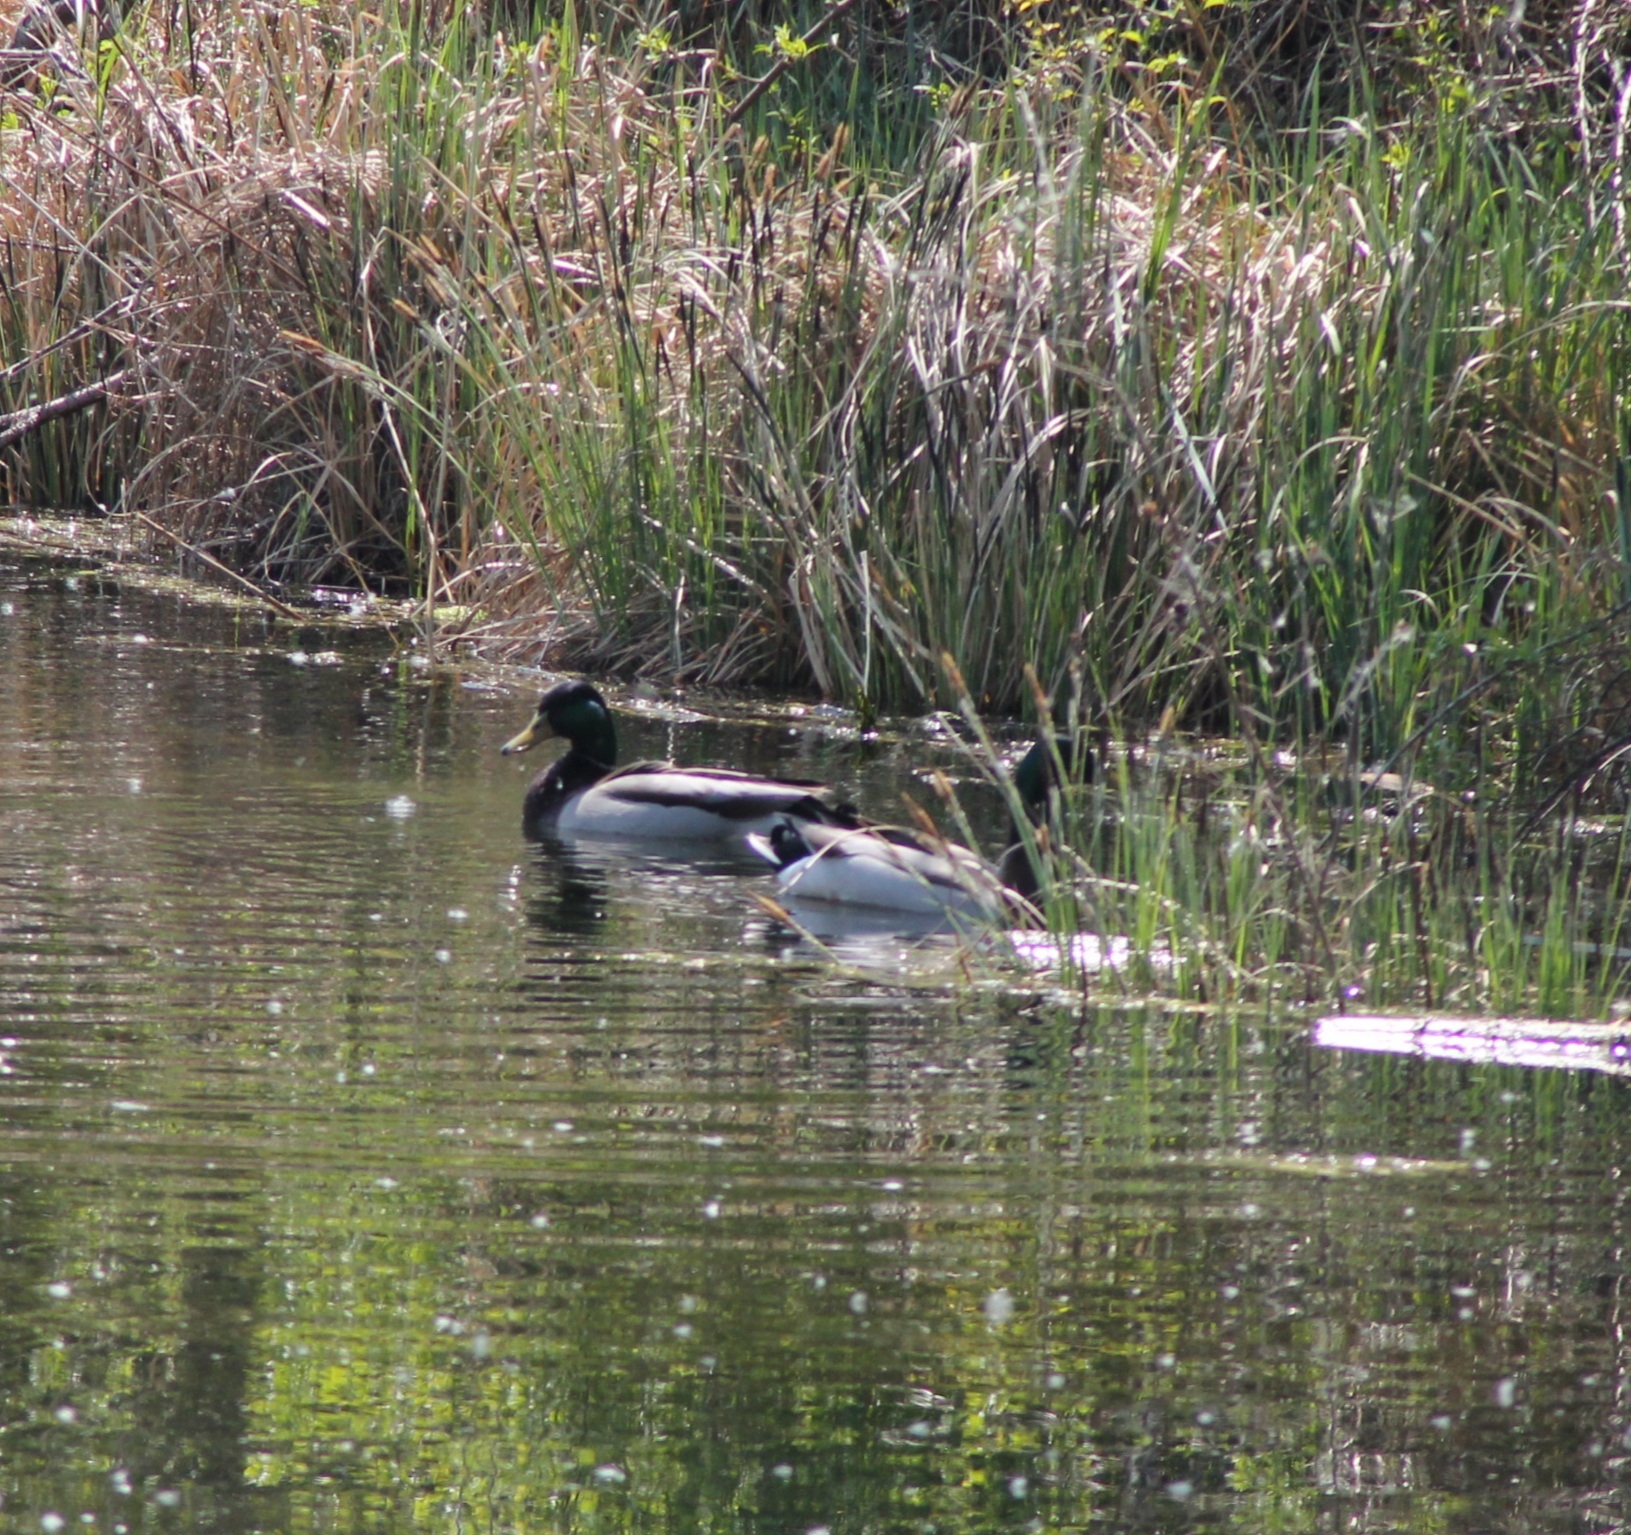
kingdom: Animalia
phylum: Chordata
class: Aves
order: Anseriformes
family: Anatidae
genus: Anas
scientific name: Anas platyrhynchos
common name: Mallard
